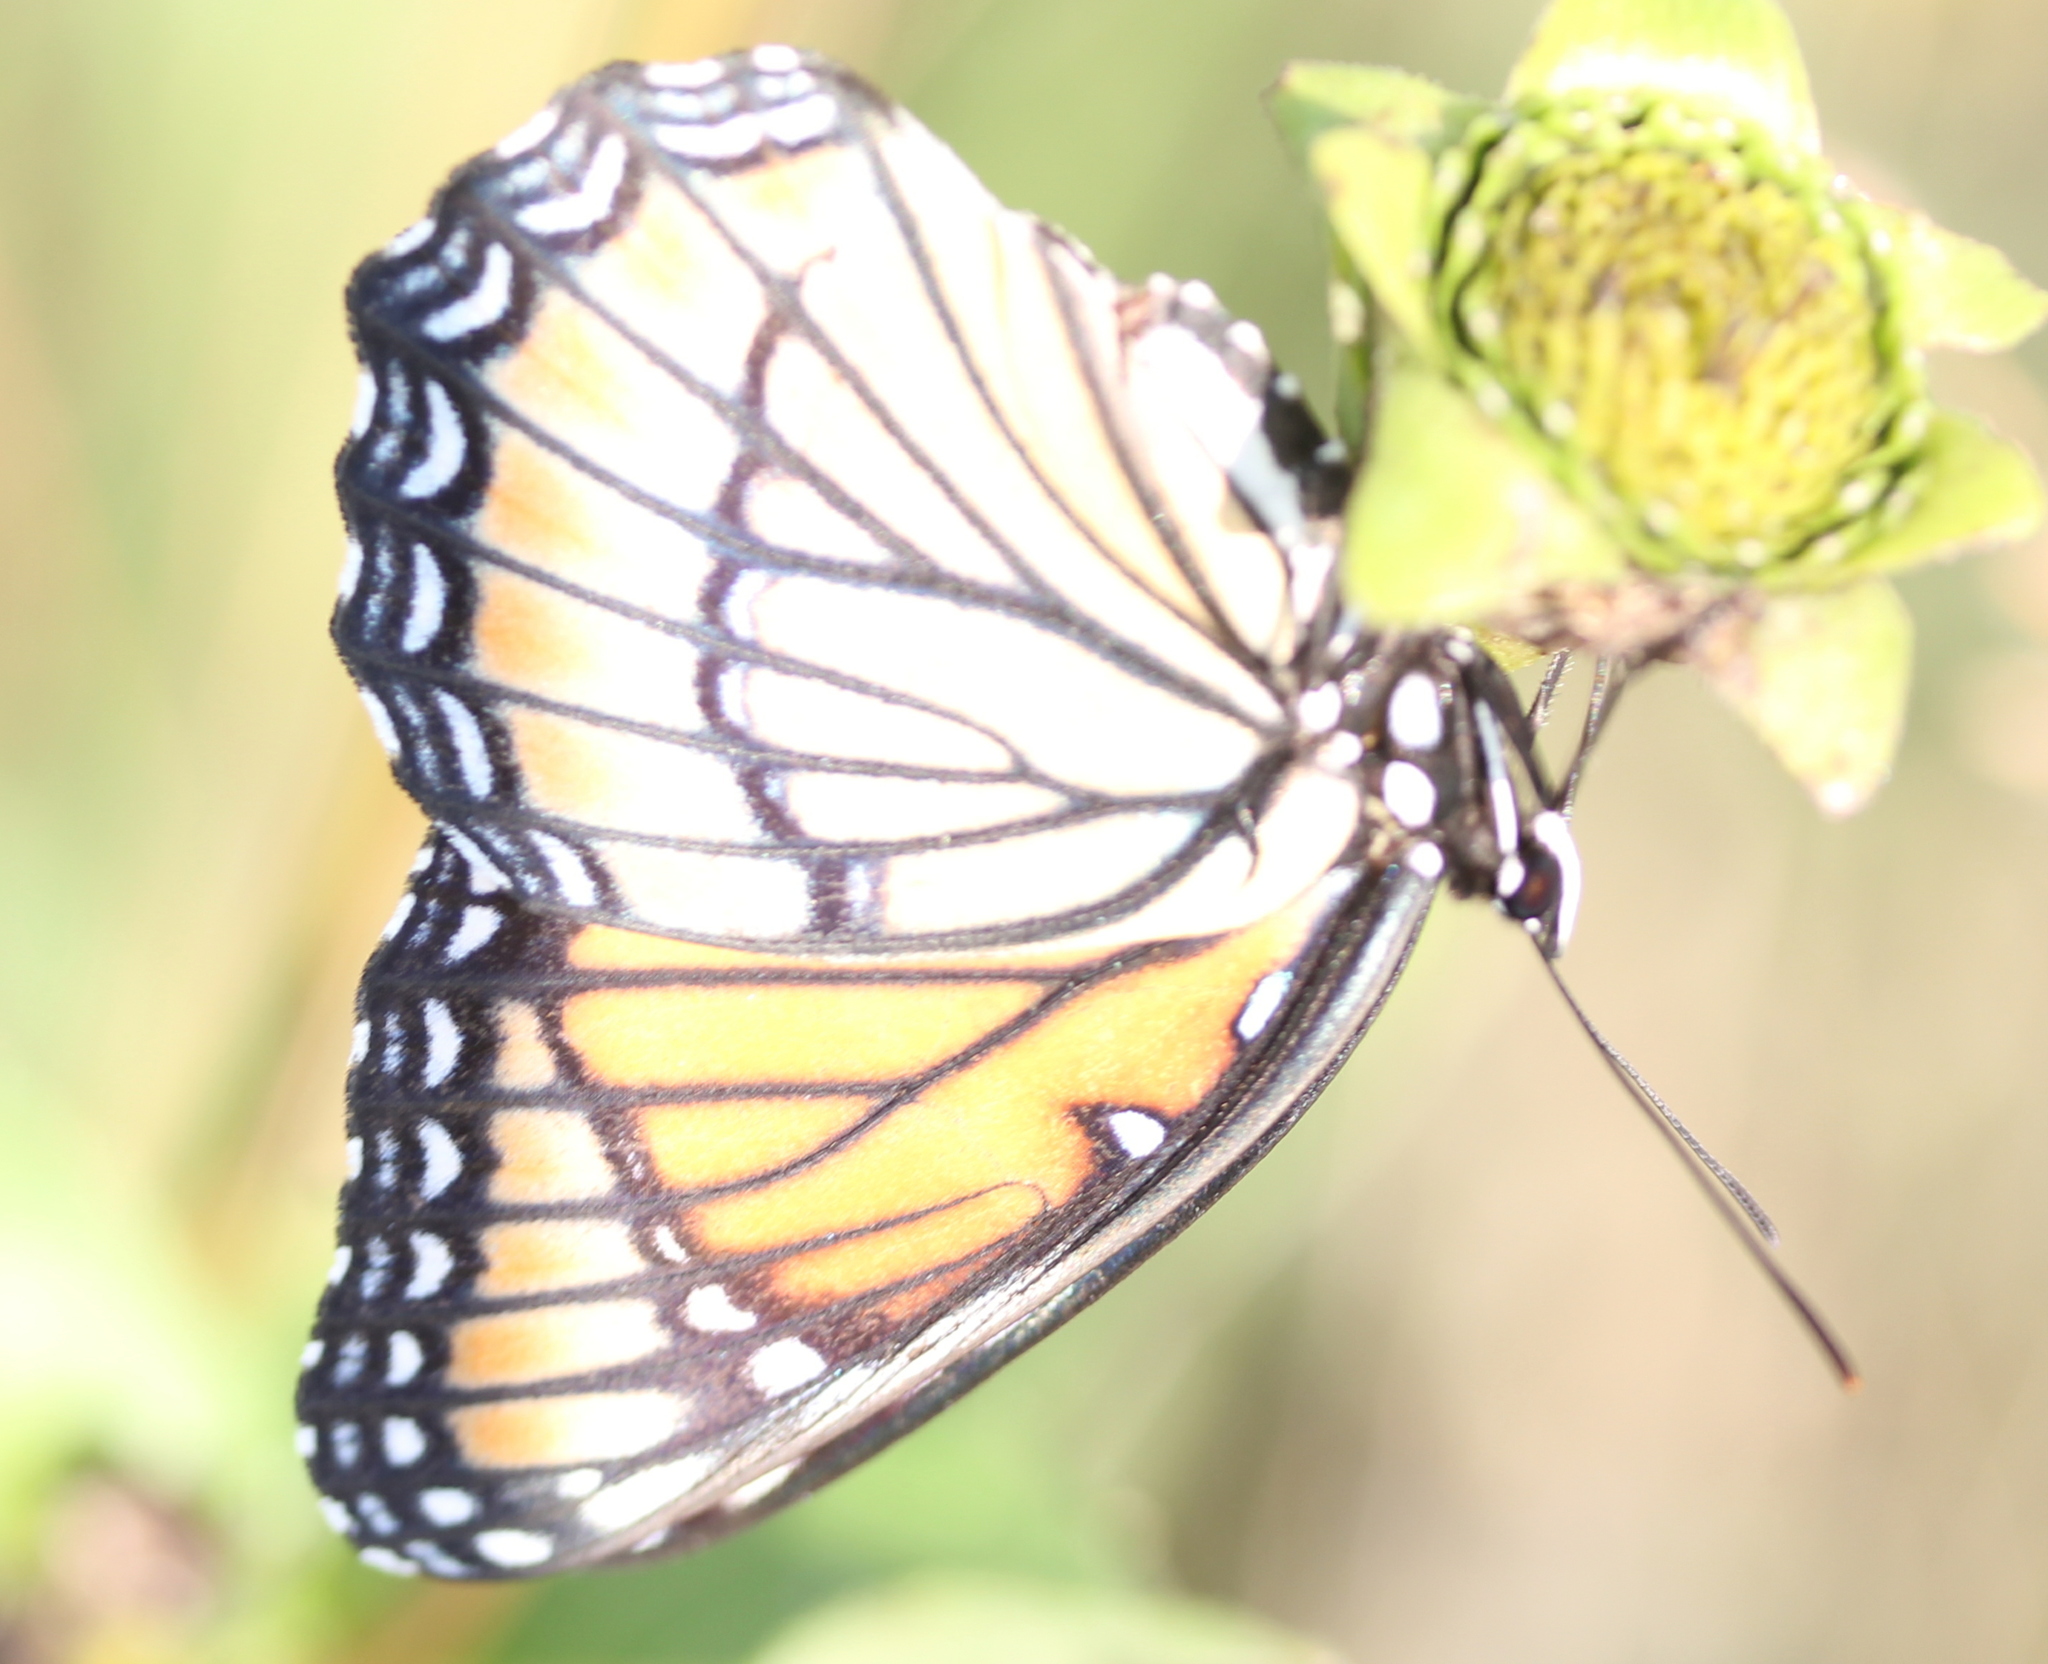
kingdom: Animalia
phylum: Arthropoda
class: Insecta
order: Lepidoptera
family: Nymphalidae
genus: Limenitis
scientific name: Limenitis archippus
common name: Viceroy
